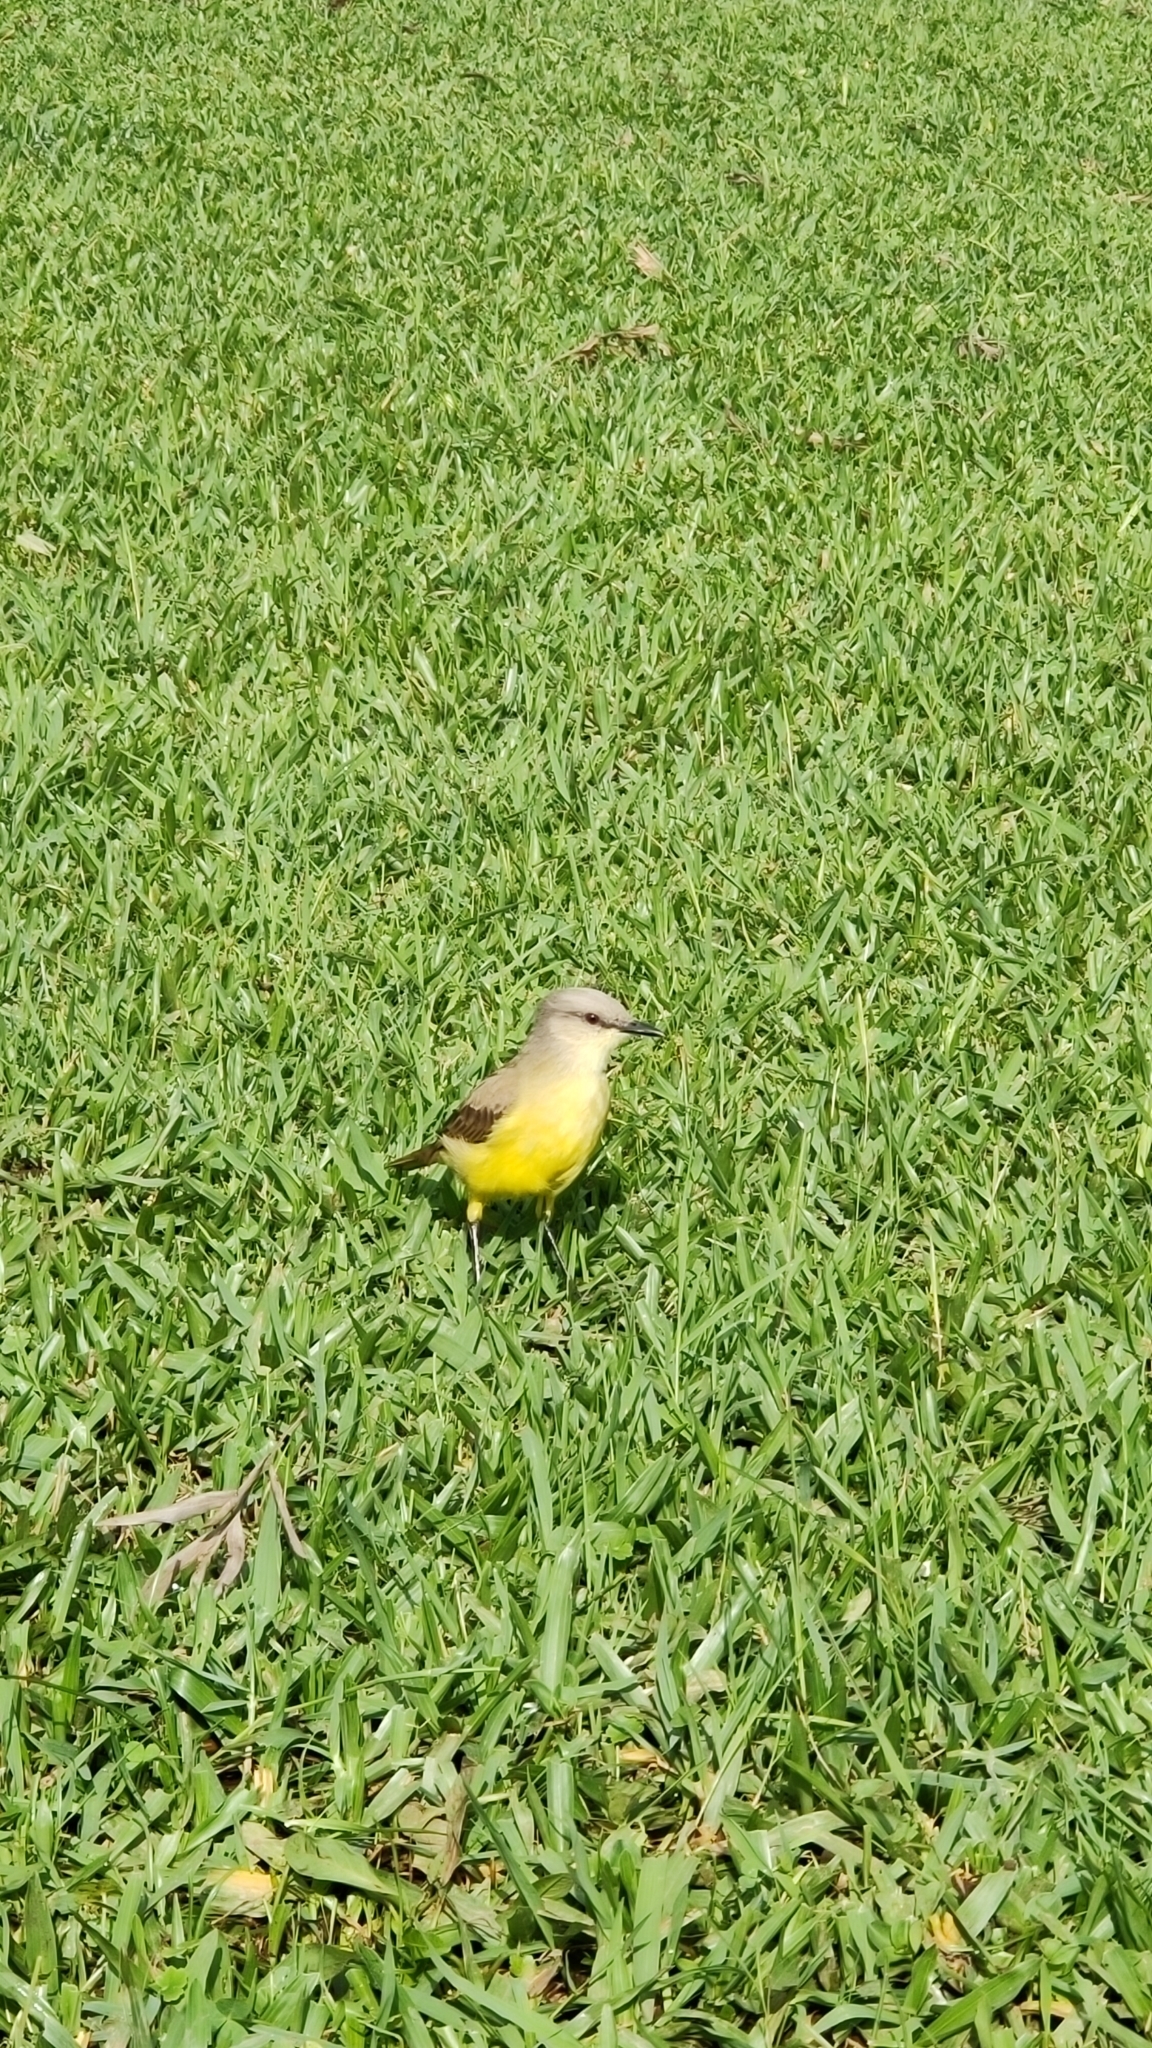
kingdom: Animalia
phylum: Chordata
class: Aves
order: Passeriformes
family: Tyrannidae
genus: Machetornis
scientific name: Machetornis rixosa
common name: Cattle tyrant
